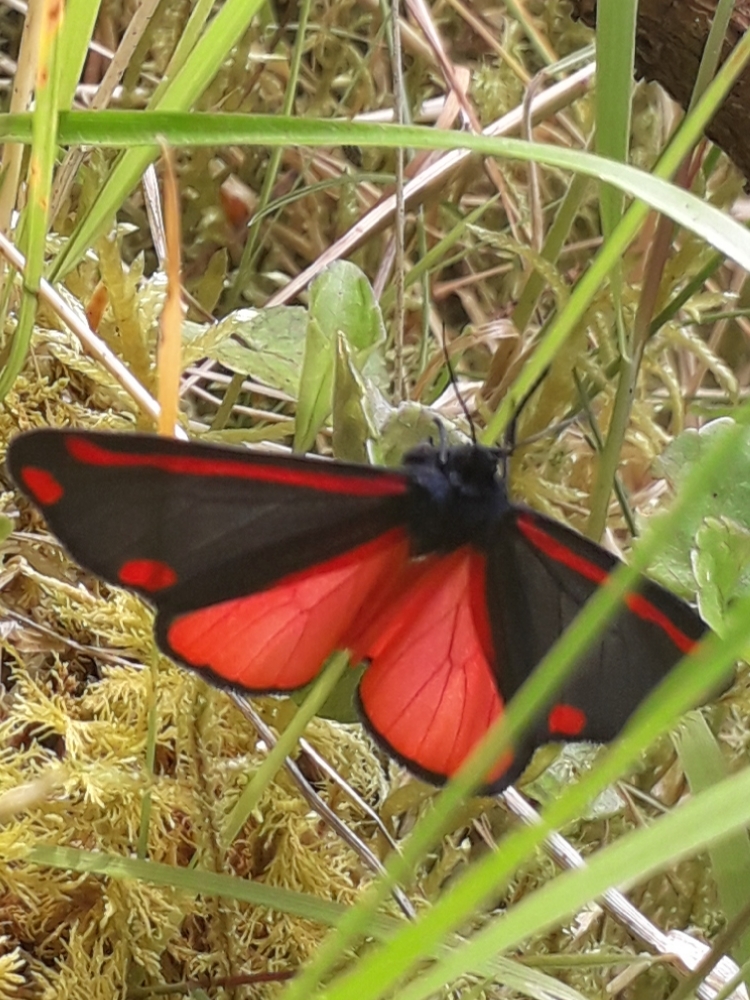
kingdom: Animalia
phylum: Arthropoda
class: Insecta
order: Lepidoptera
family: Erebidae
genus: Tyria
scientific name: Tyria jacobaeae
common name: Cinnabar
